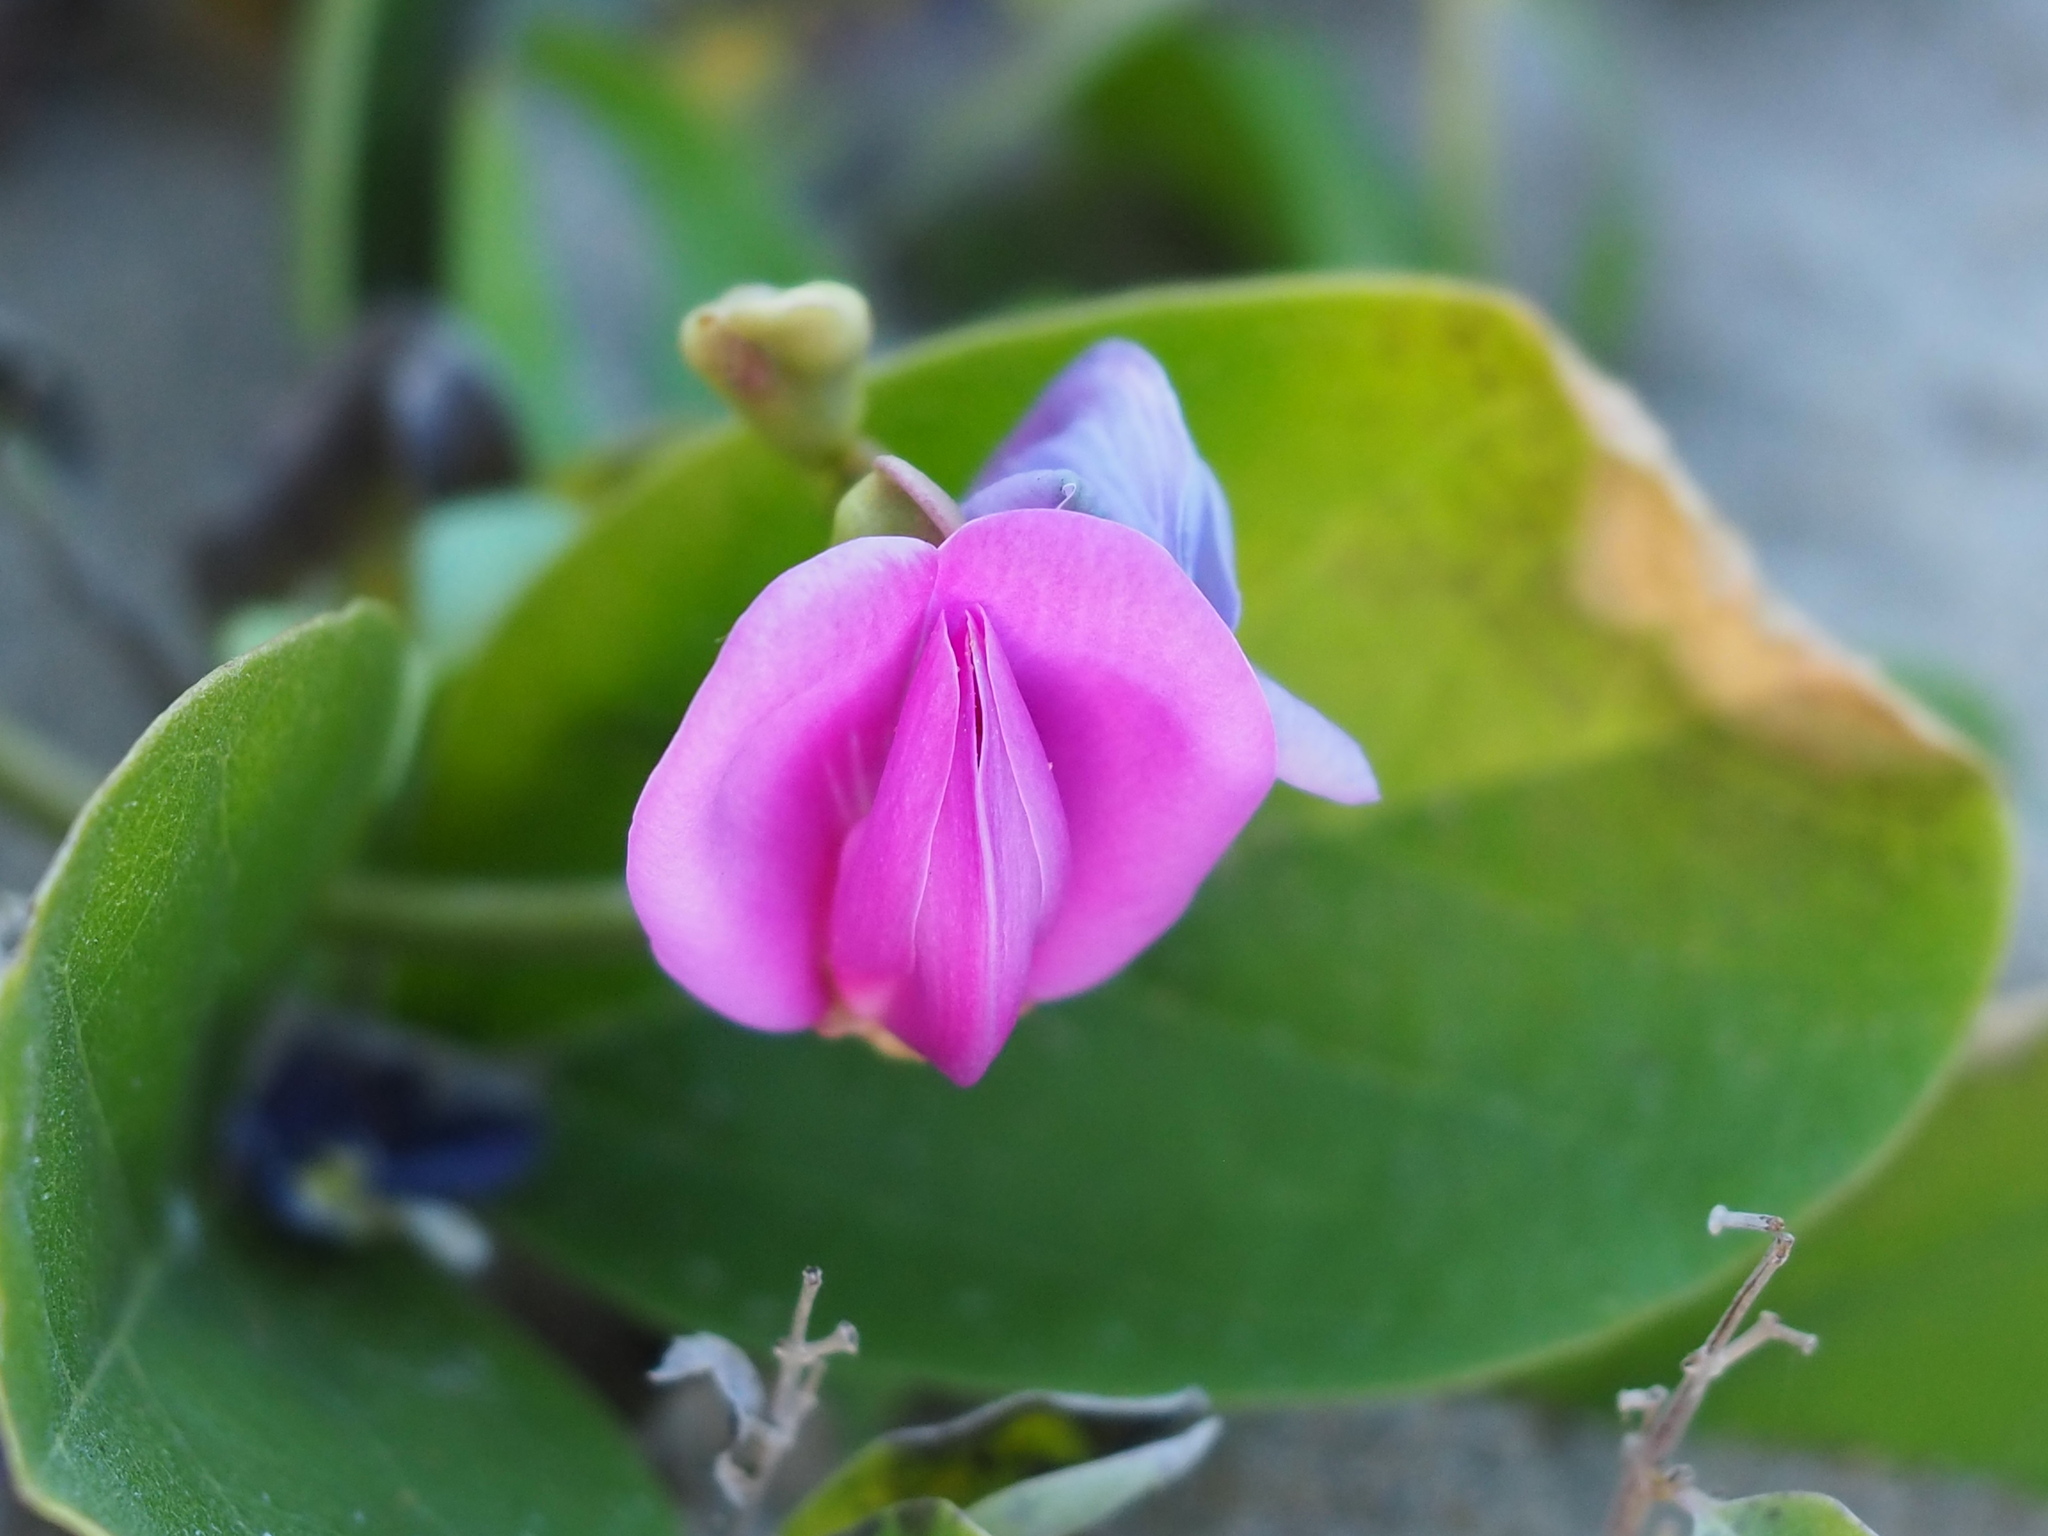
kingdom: Plantae
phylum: Tracheophyta
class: Magnoliopsida
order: Fabales
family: Fabaceae
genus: Canavalia
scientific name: Canavalia rosea
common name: Beach-bean
